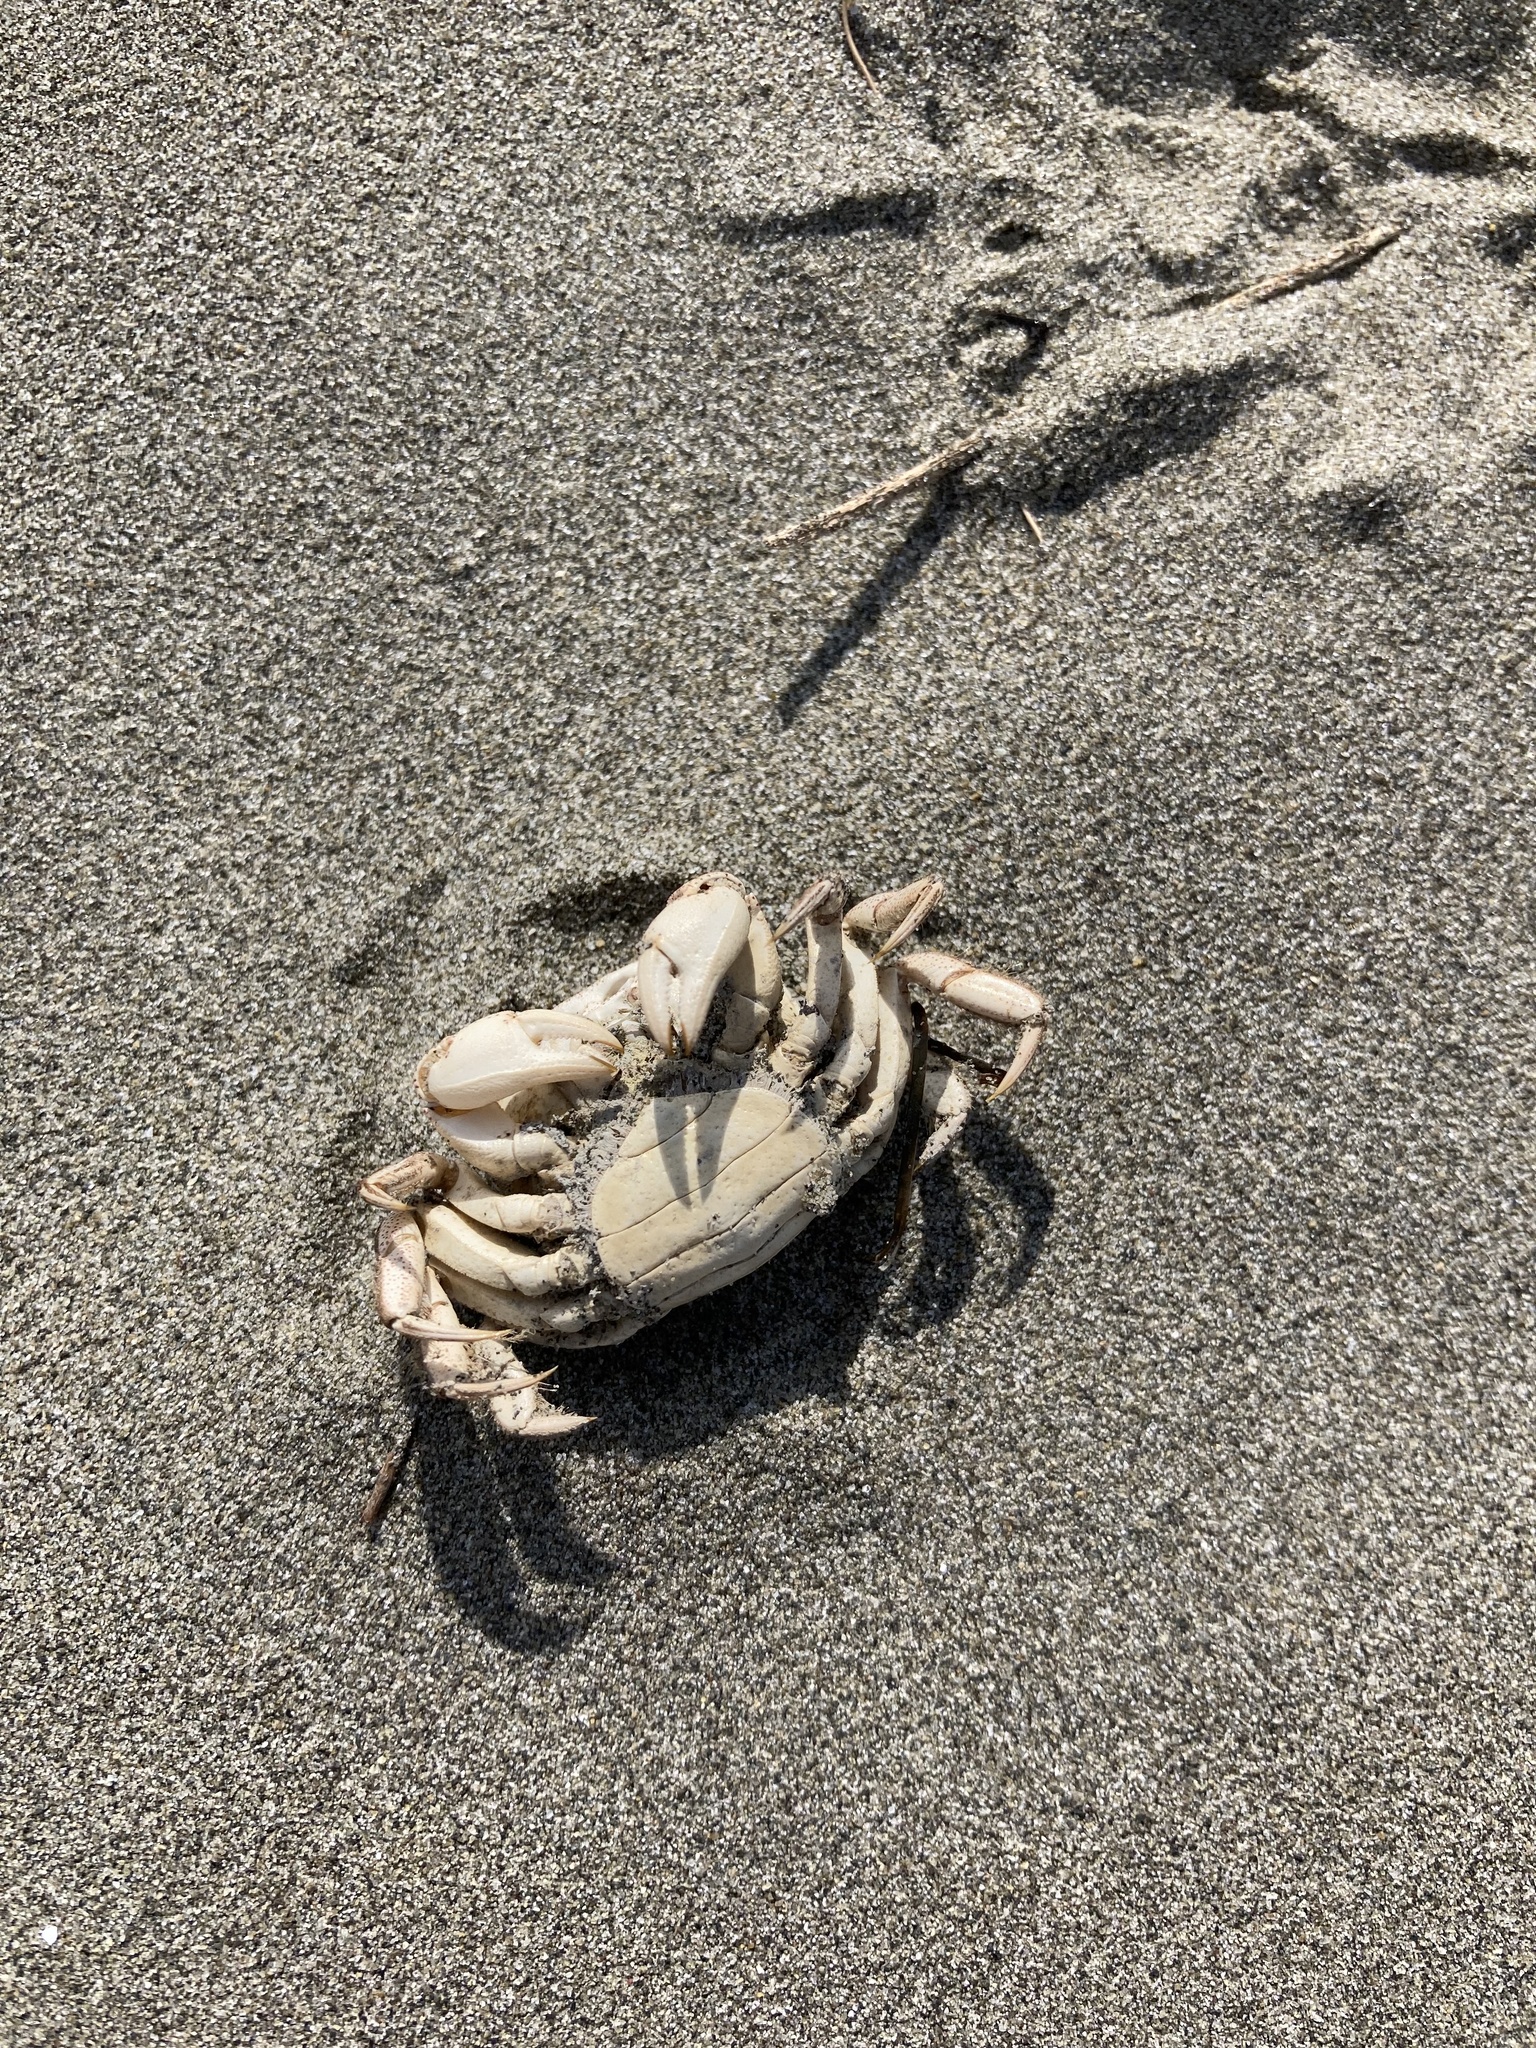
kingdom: Animalia
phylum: Arthropoda
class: Malacostraca
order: Decapoda
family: Varunidae
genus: Hemigrapsus
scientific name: Hemigrapsus crenulatus
